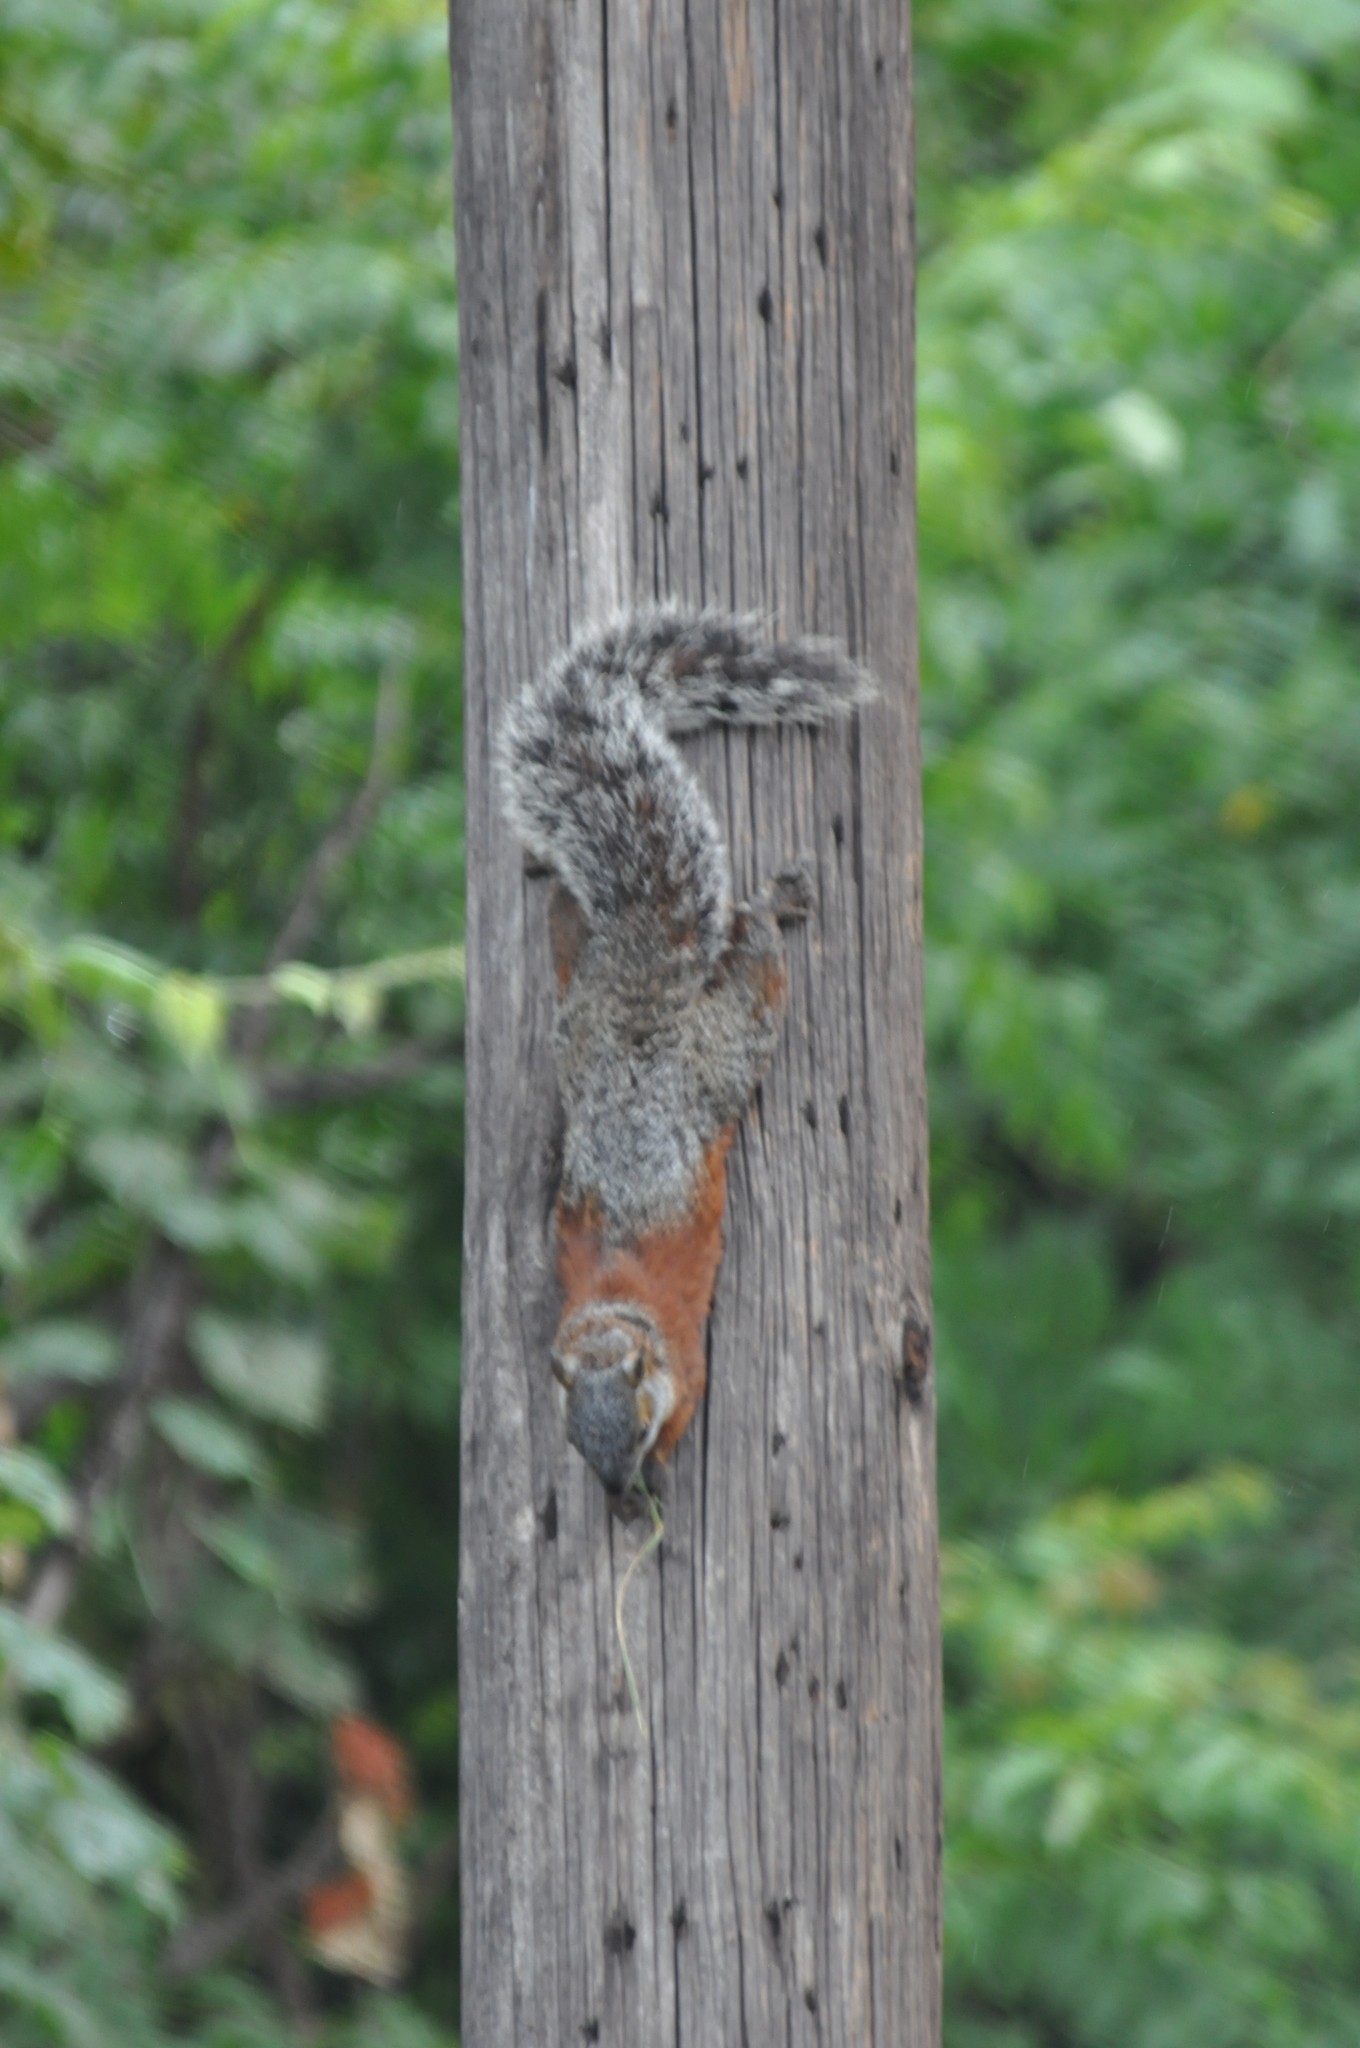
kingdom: Animalia
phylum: Chordata
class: Mammalia
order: Rodentia
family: Sciuridae
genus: Sciurus
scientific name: Sciurus aureogaster
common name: Red-bellied squirrel
